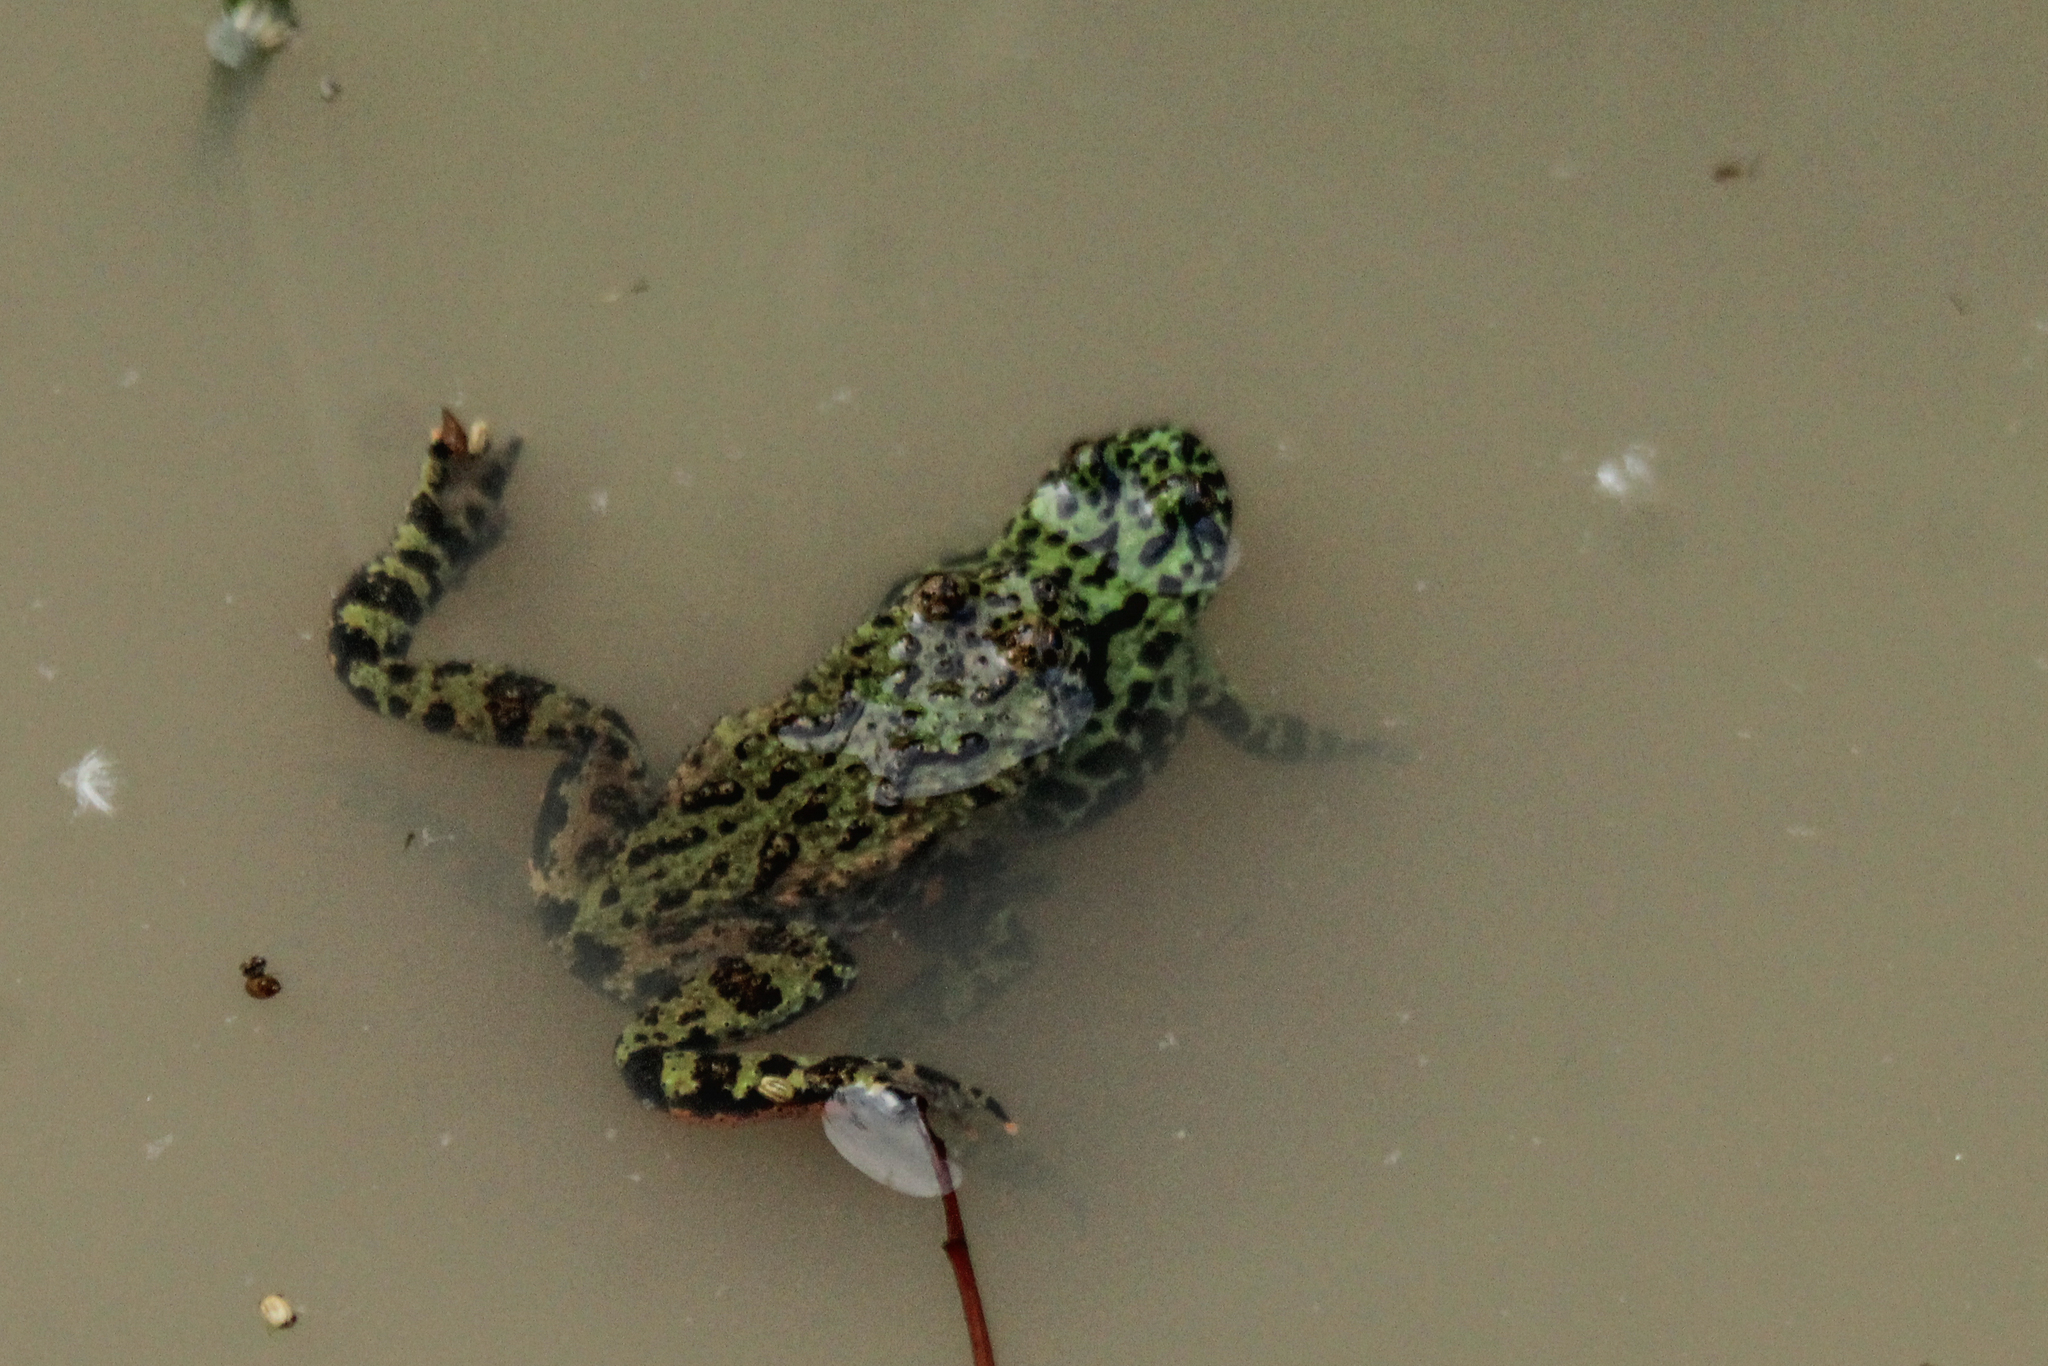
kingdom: Animalia
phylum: Chordata
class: Amphibia
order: Anura
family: Bombinatoridae
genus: Bombina
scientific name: Bombina orientalis
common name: Oriental firebelly toad
